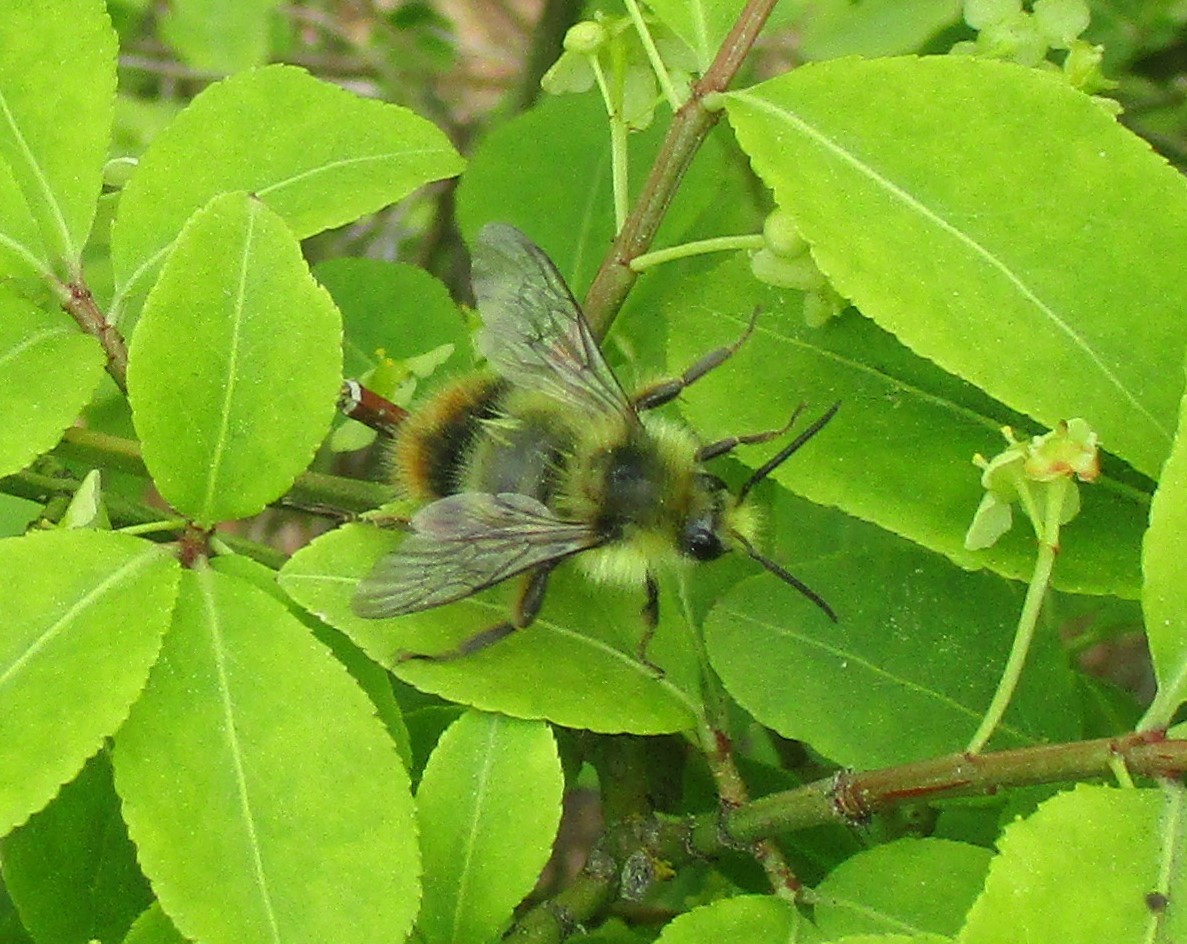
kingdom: Animalia
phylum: Arthropoda
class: Insecta
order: Hymenoptera
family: Apidae
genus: Bombus
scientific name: Bombus mixtus
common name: Fuzzy-horned bumble bee
